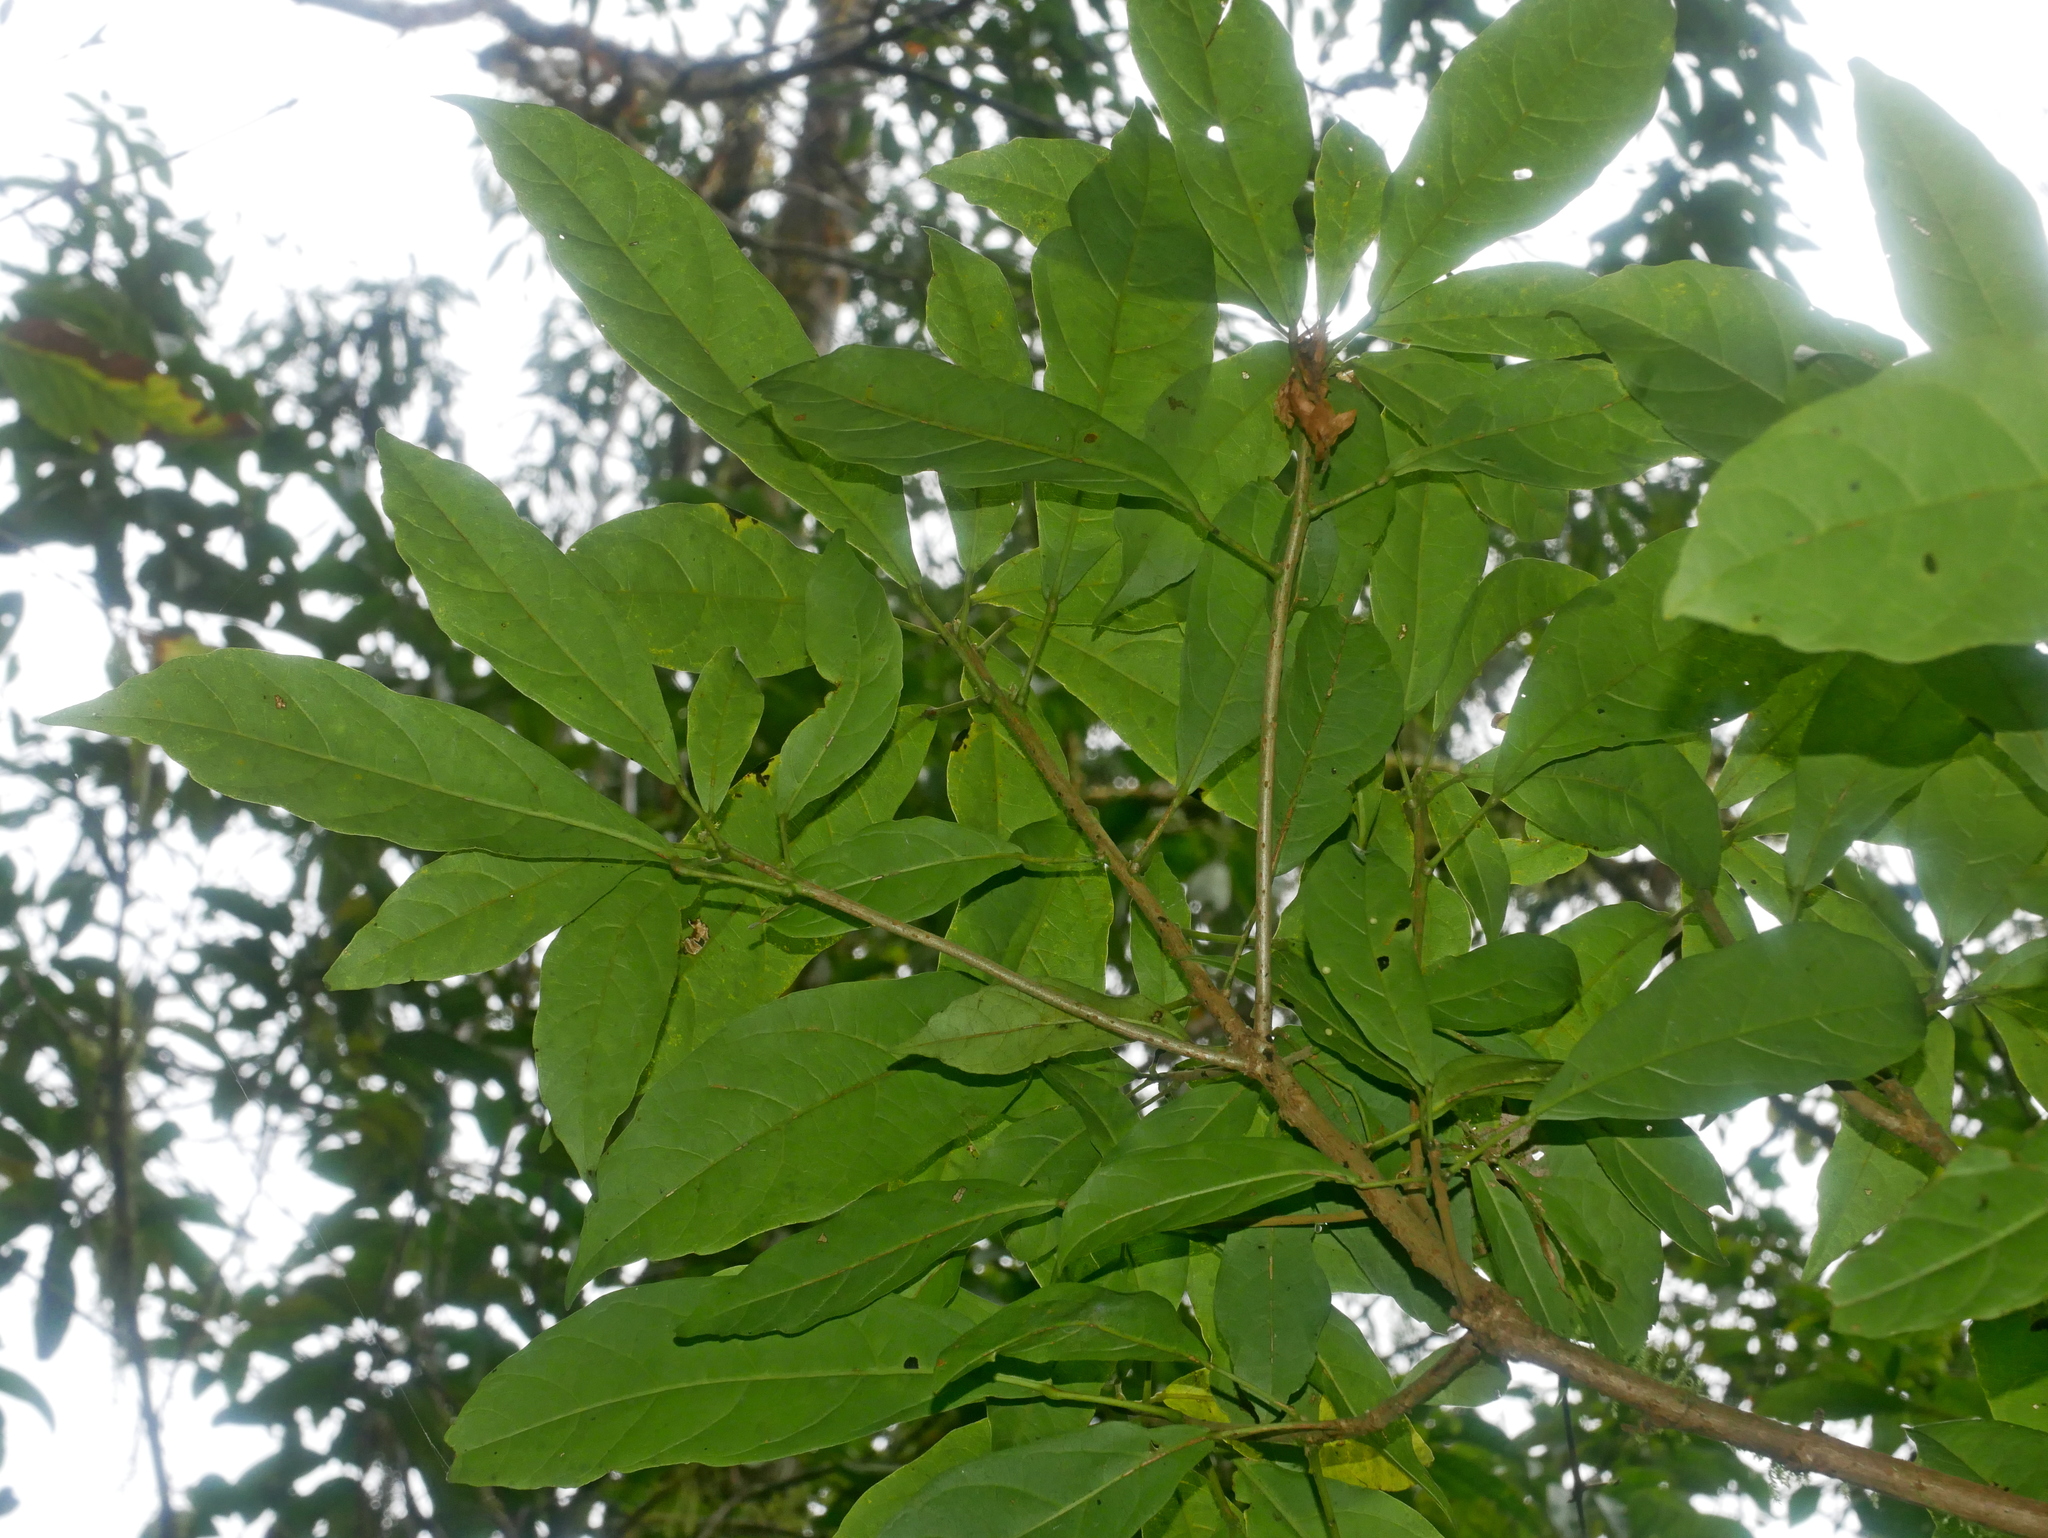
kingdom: Plantae
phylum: Tracheophyta
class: Magnoliopsida
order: Oxalidales
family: Elaeocarpaceae
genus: Sloanea
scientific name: Sloanea dasycarpa
